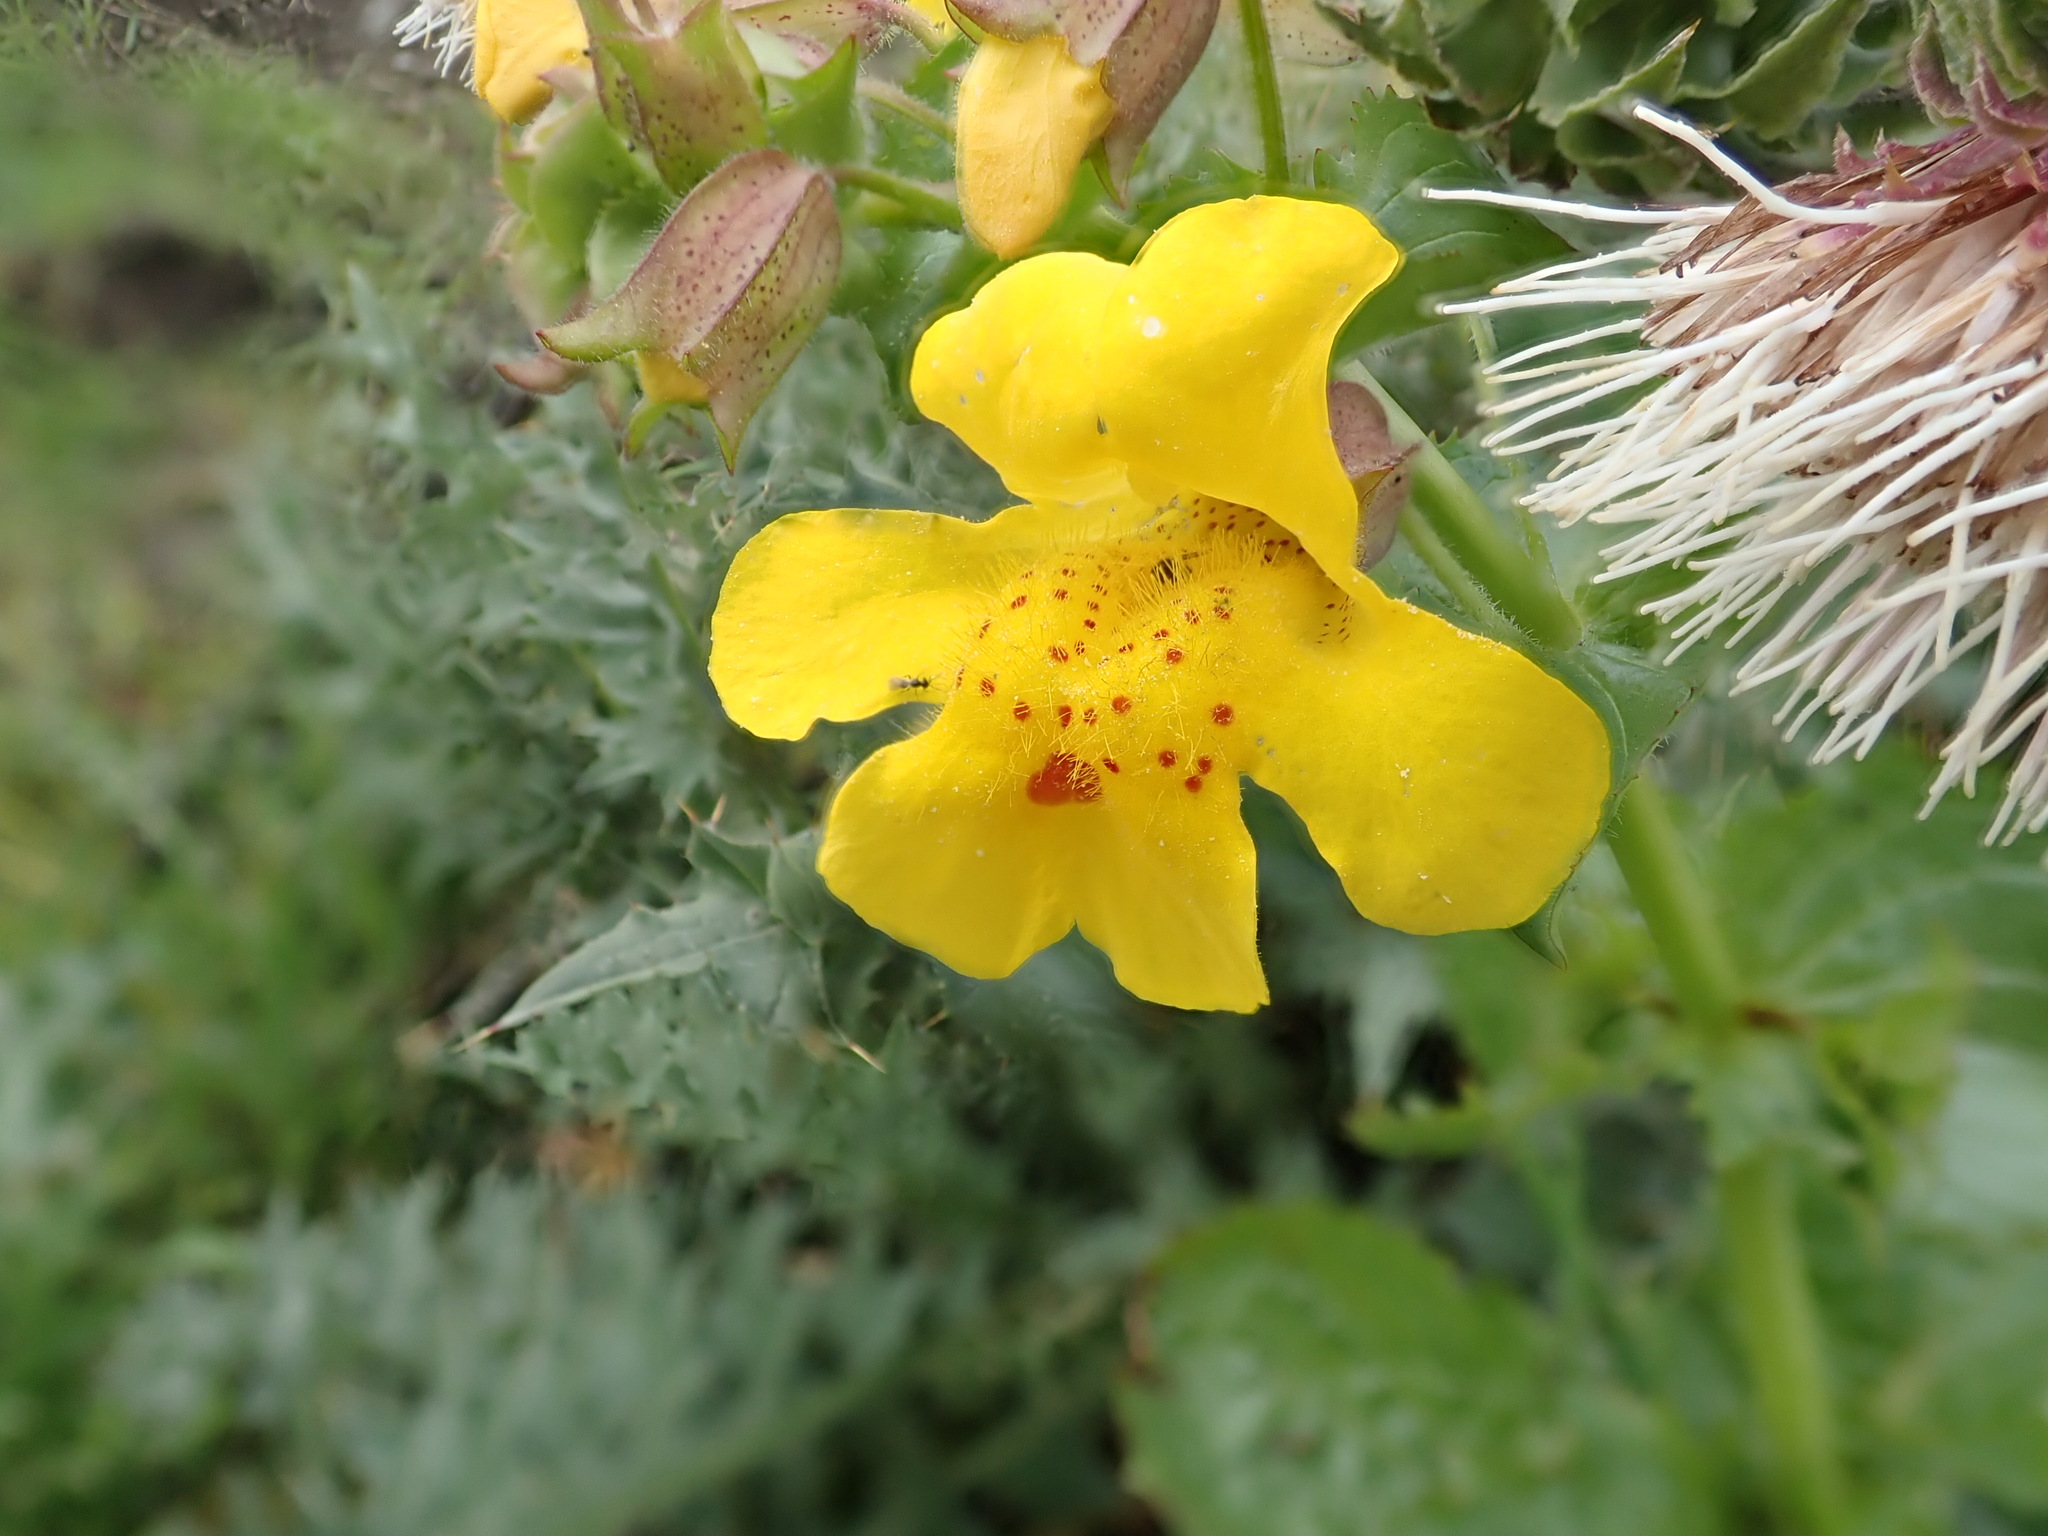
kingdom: Plantae
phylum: Tracheophyta
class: Magnoliopsida
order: Lamiales
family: Phrymaceae
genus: Erythranthe
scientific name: Erythranthe guttata
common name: Monkeyflower
